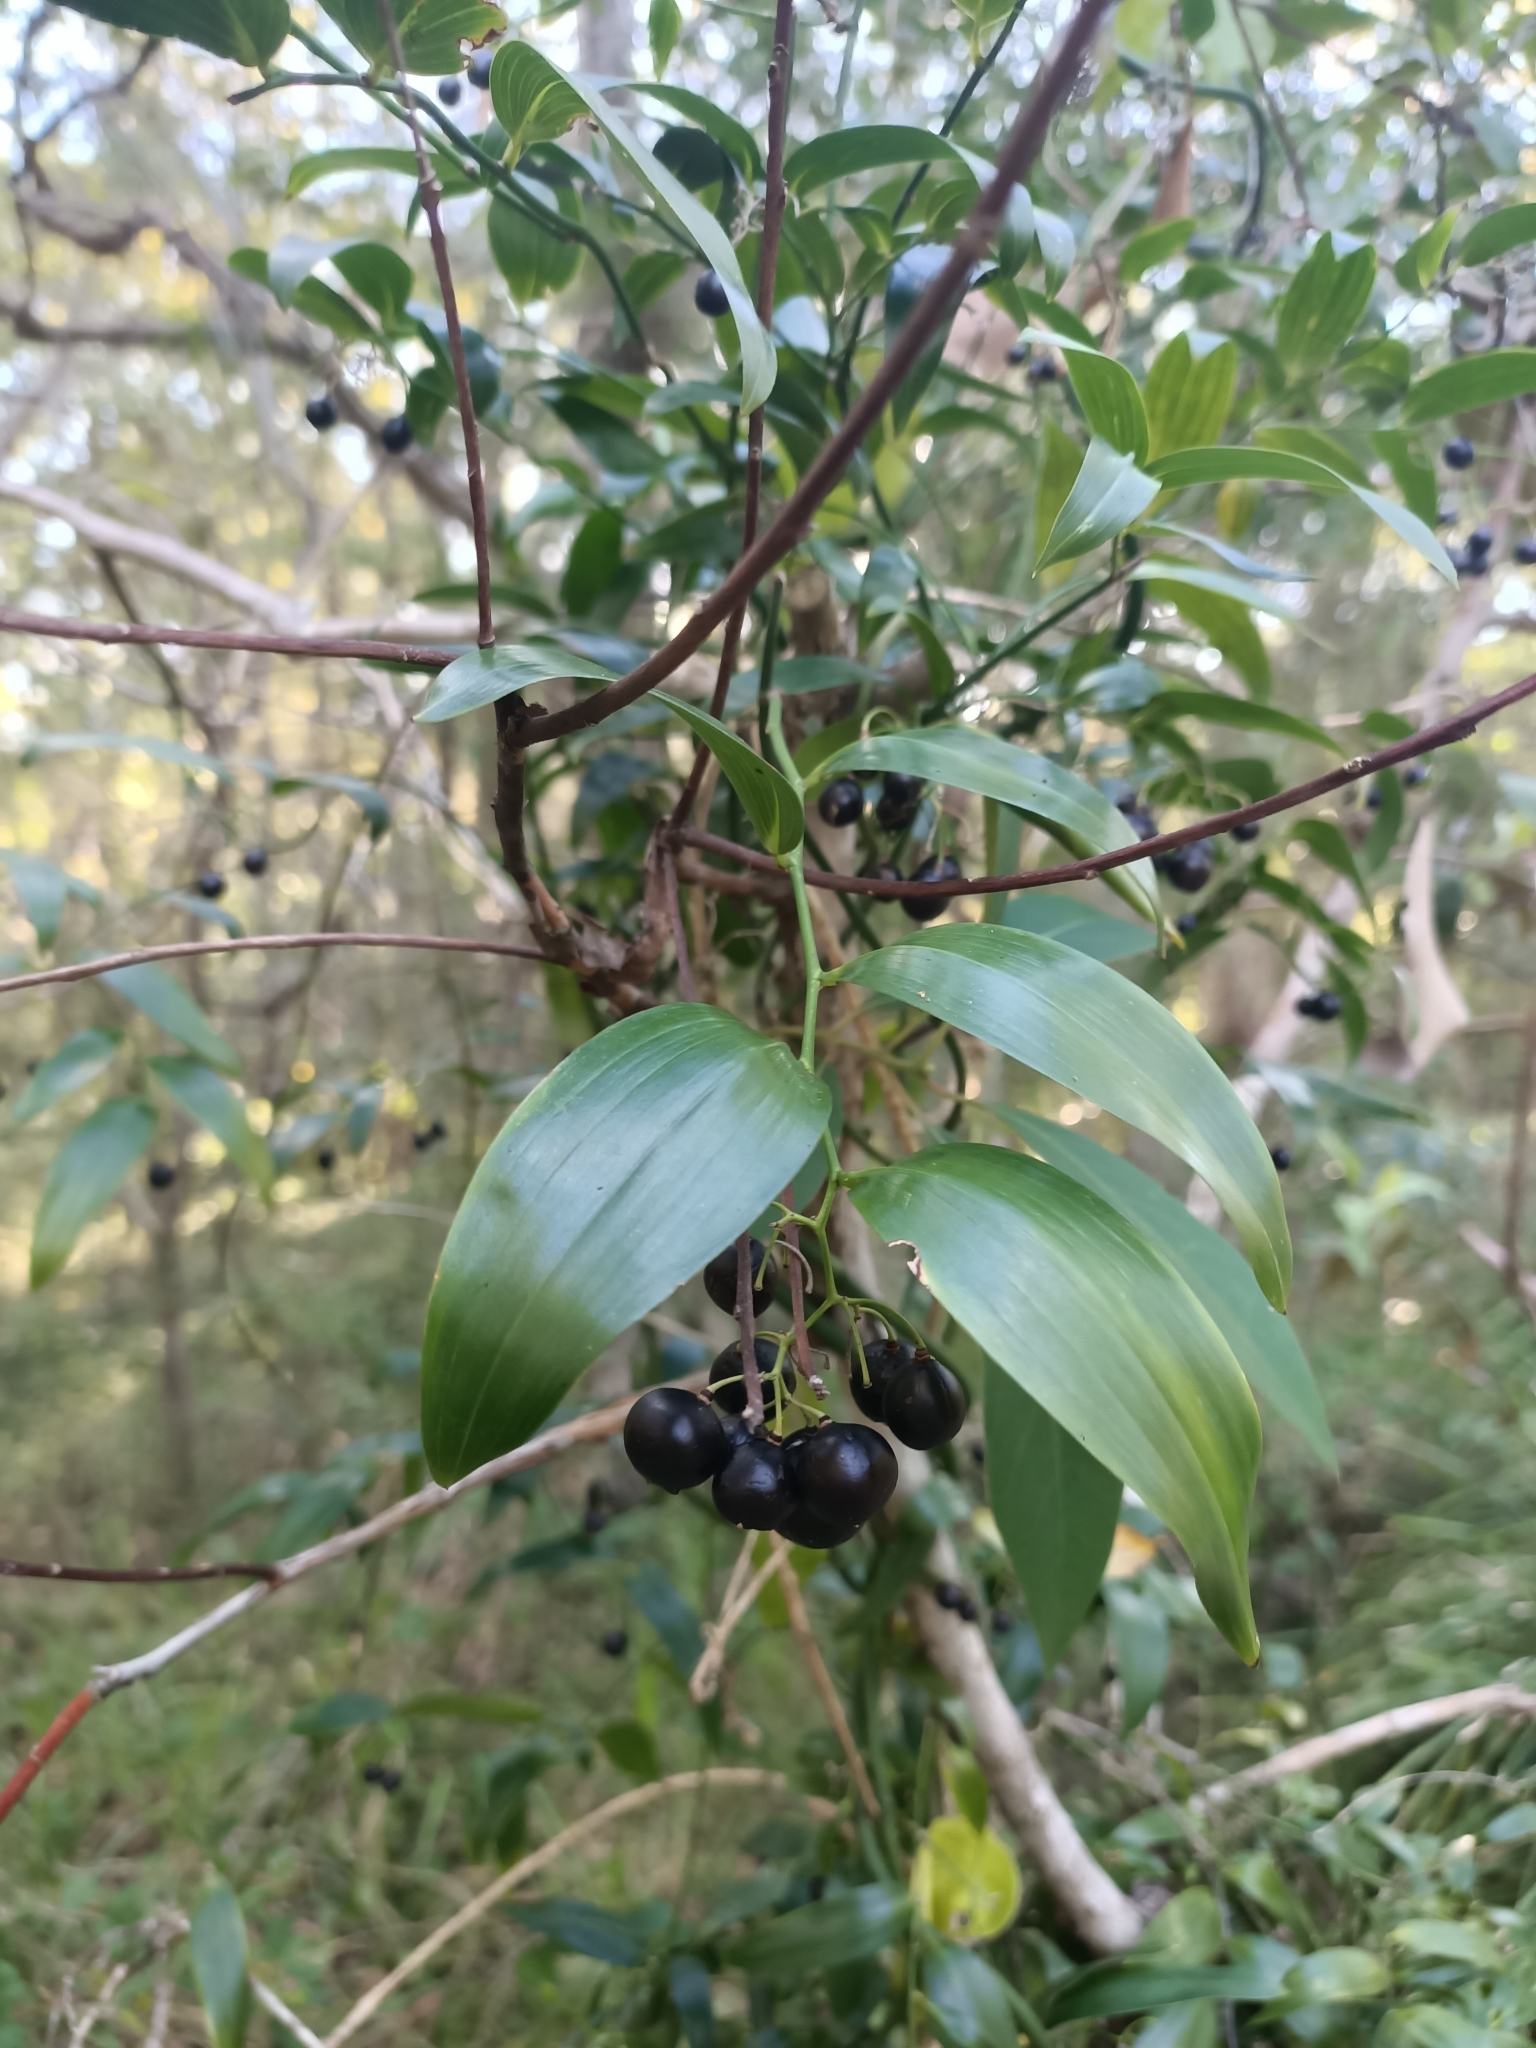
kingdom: Plantae
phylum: Tracheophyta
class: Liliopsida
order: Asparagales
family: Asphodelaceae
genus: Geitonoplesium
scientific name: Geitonoplesium cymosum
